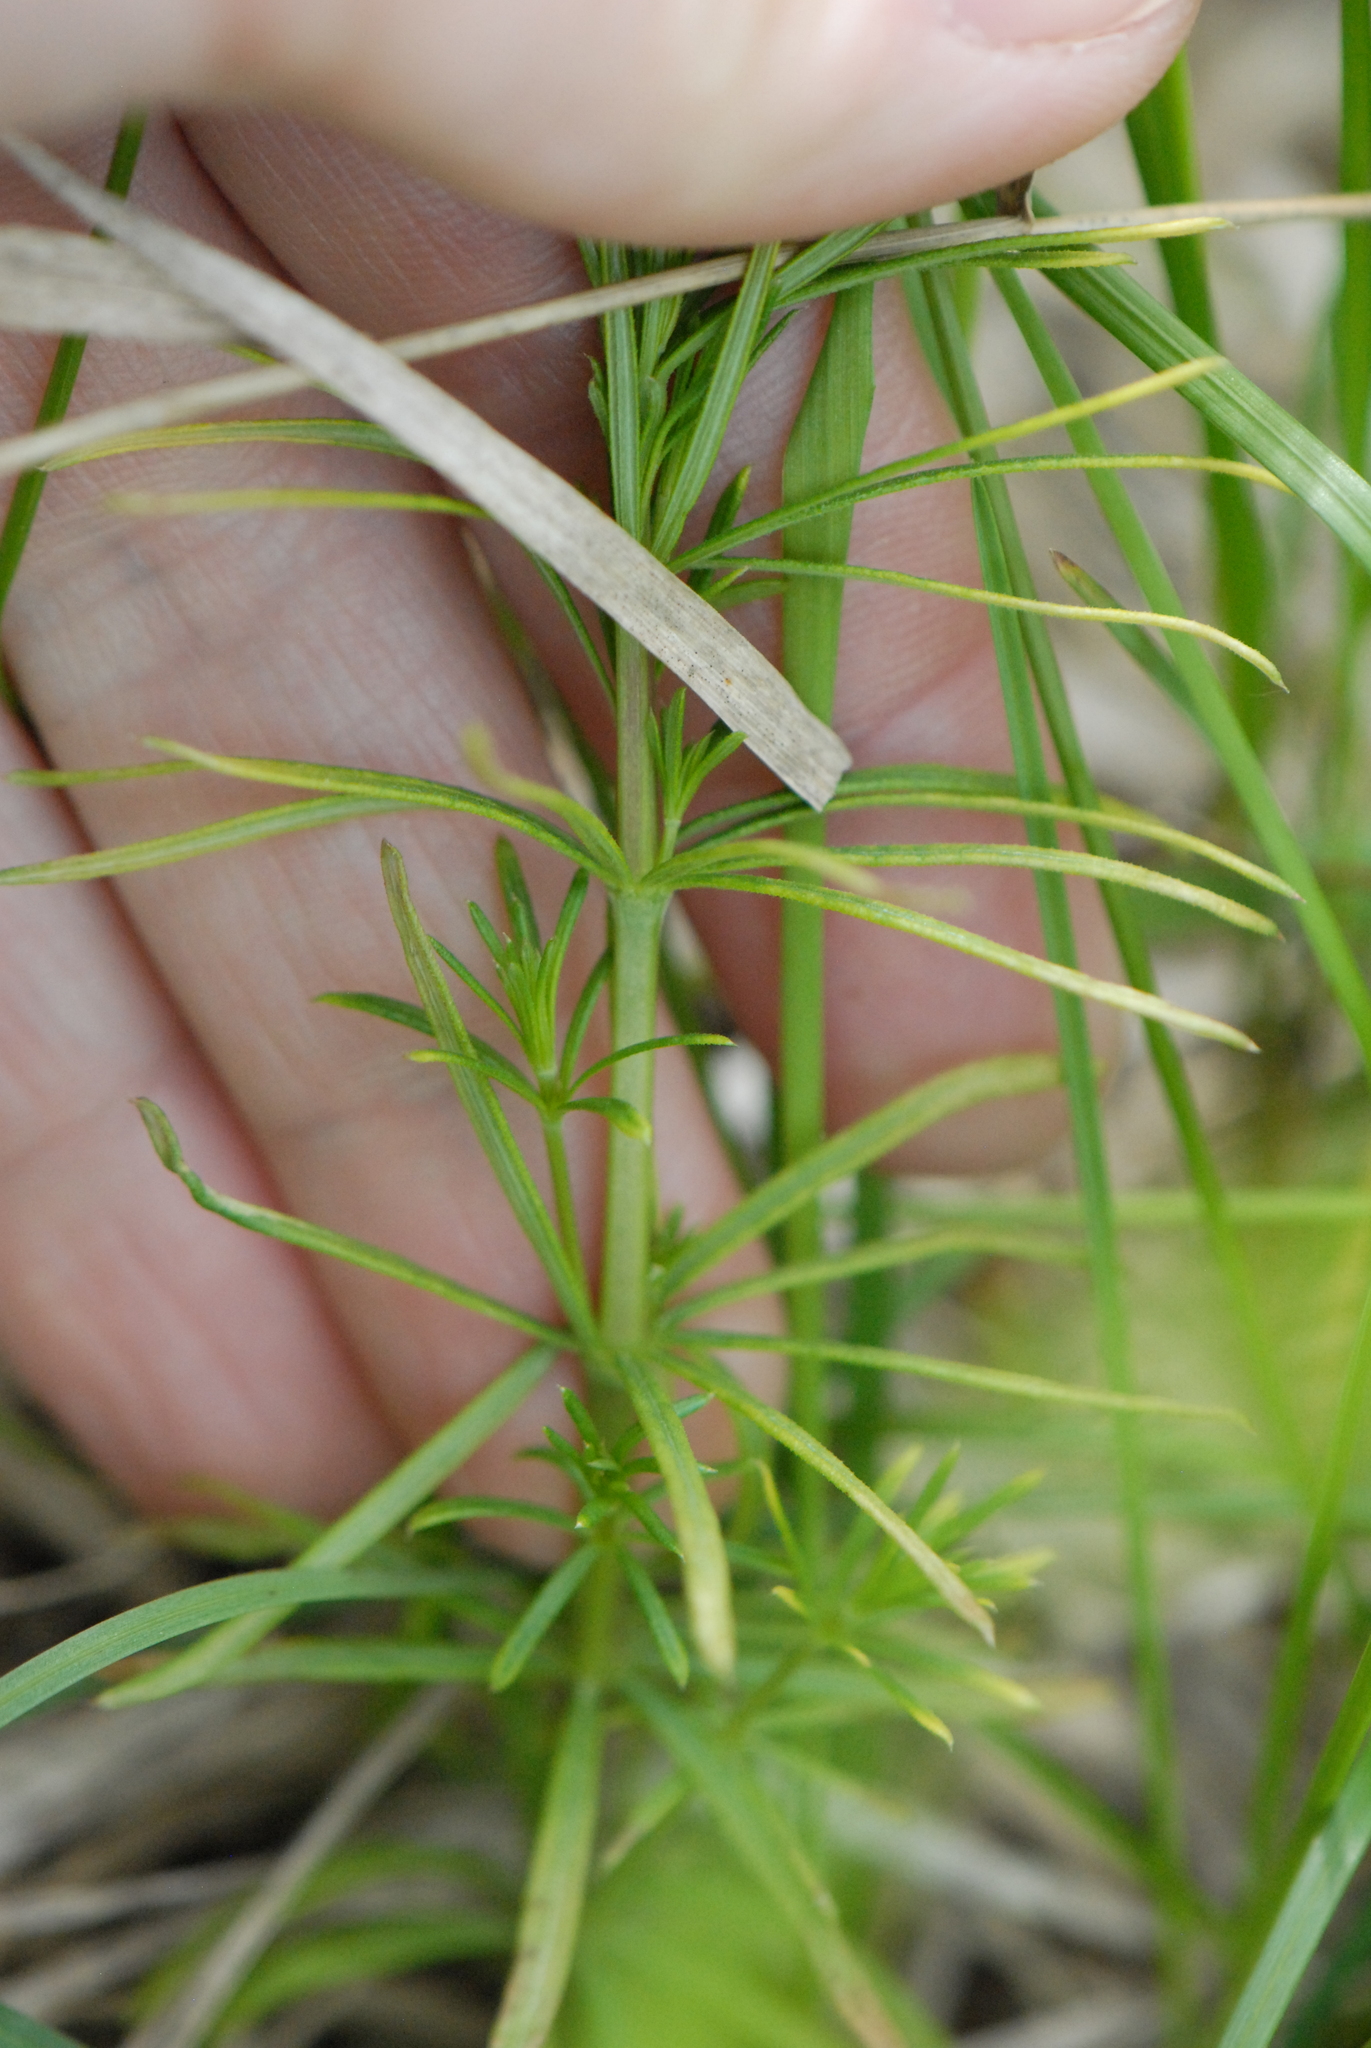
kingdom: Plantae
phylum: Tracheophyta
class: Magnoliopsida
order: Gentianales
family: Rubiaceae
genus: Galium
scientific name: Galium verum
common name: Lady's bedstraw
